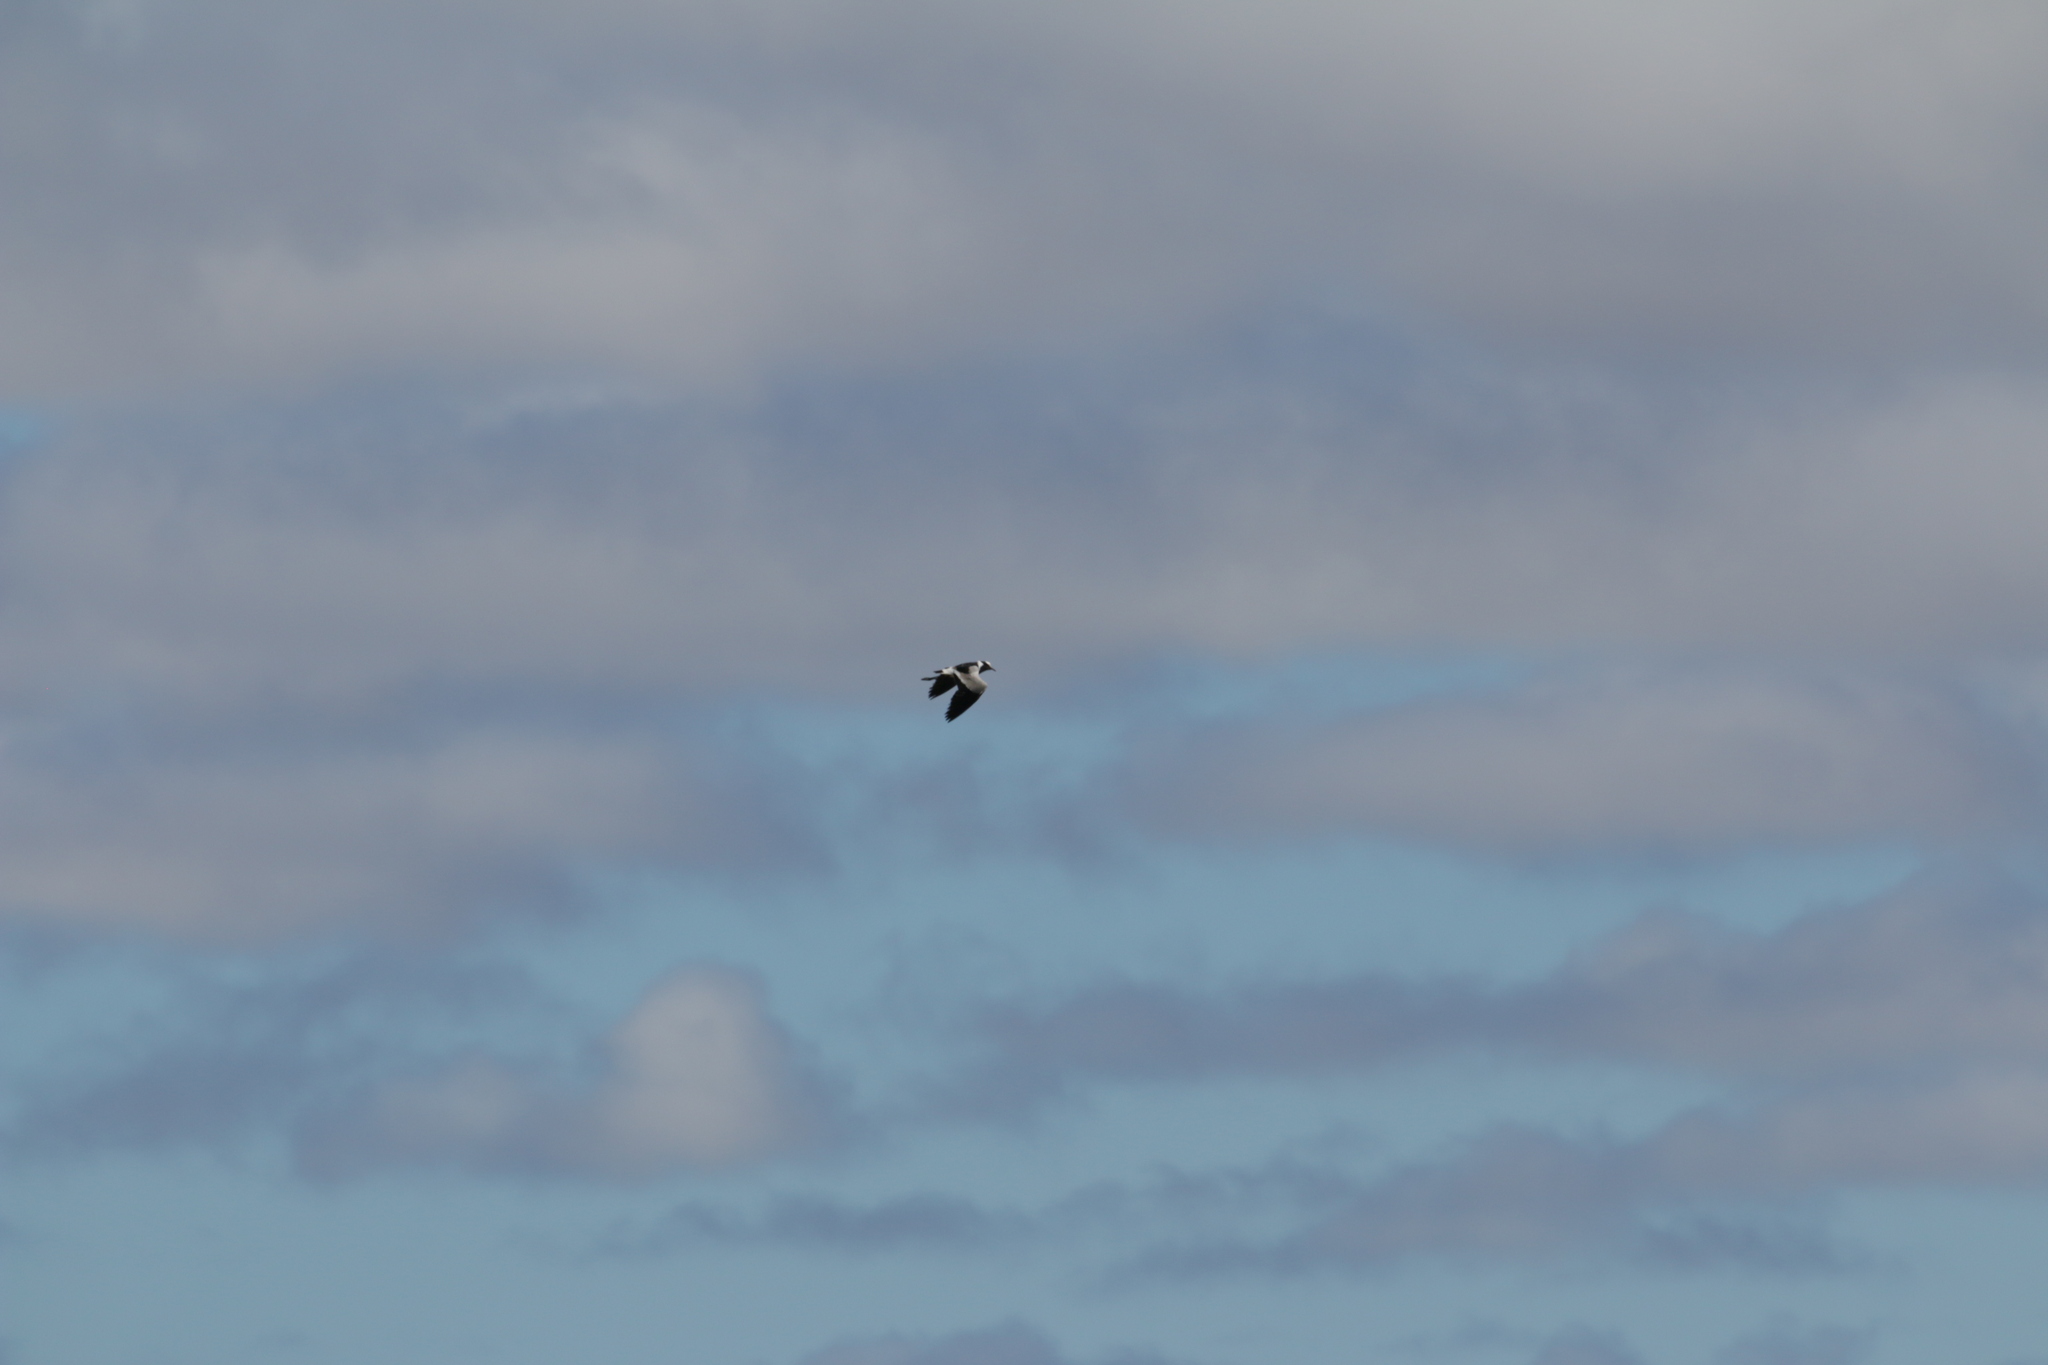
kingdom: Animalia
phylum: Chordata
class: Aves
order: Charadriiformes
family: Charadriidae
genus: Vanellus
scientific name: Vanellus armatus
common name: Blacksmith lapwing
